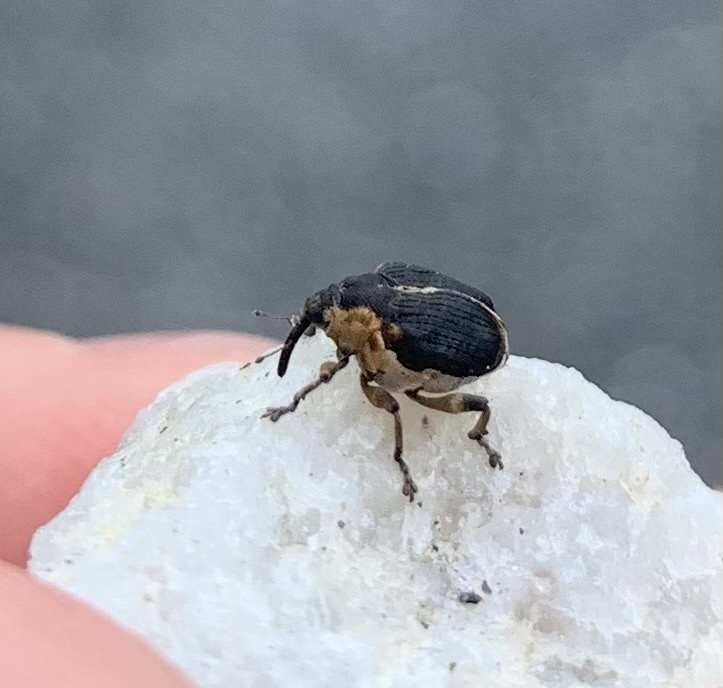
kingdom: Animalia
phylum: Arthropoda
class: Insecta
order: Coleoptera
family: Curculionidae
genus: Mononychus
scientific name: Mononychus vulpeculus
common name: Iris weevil
